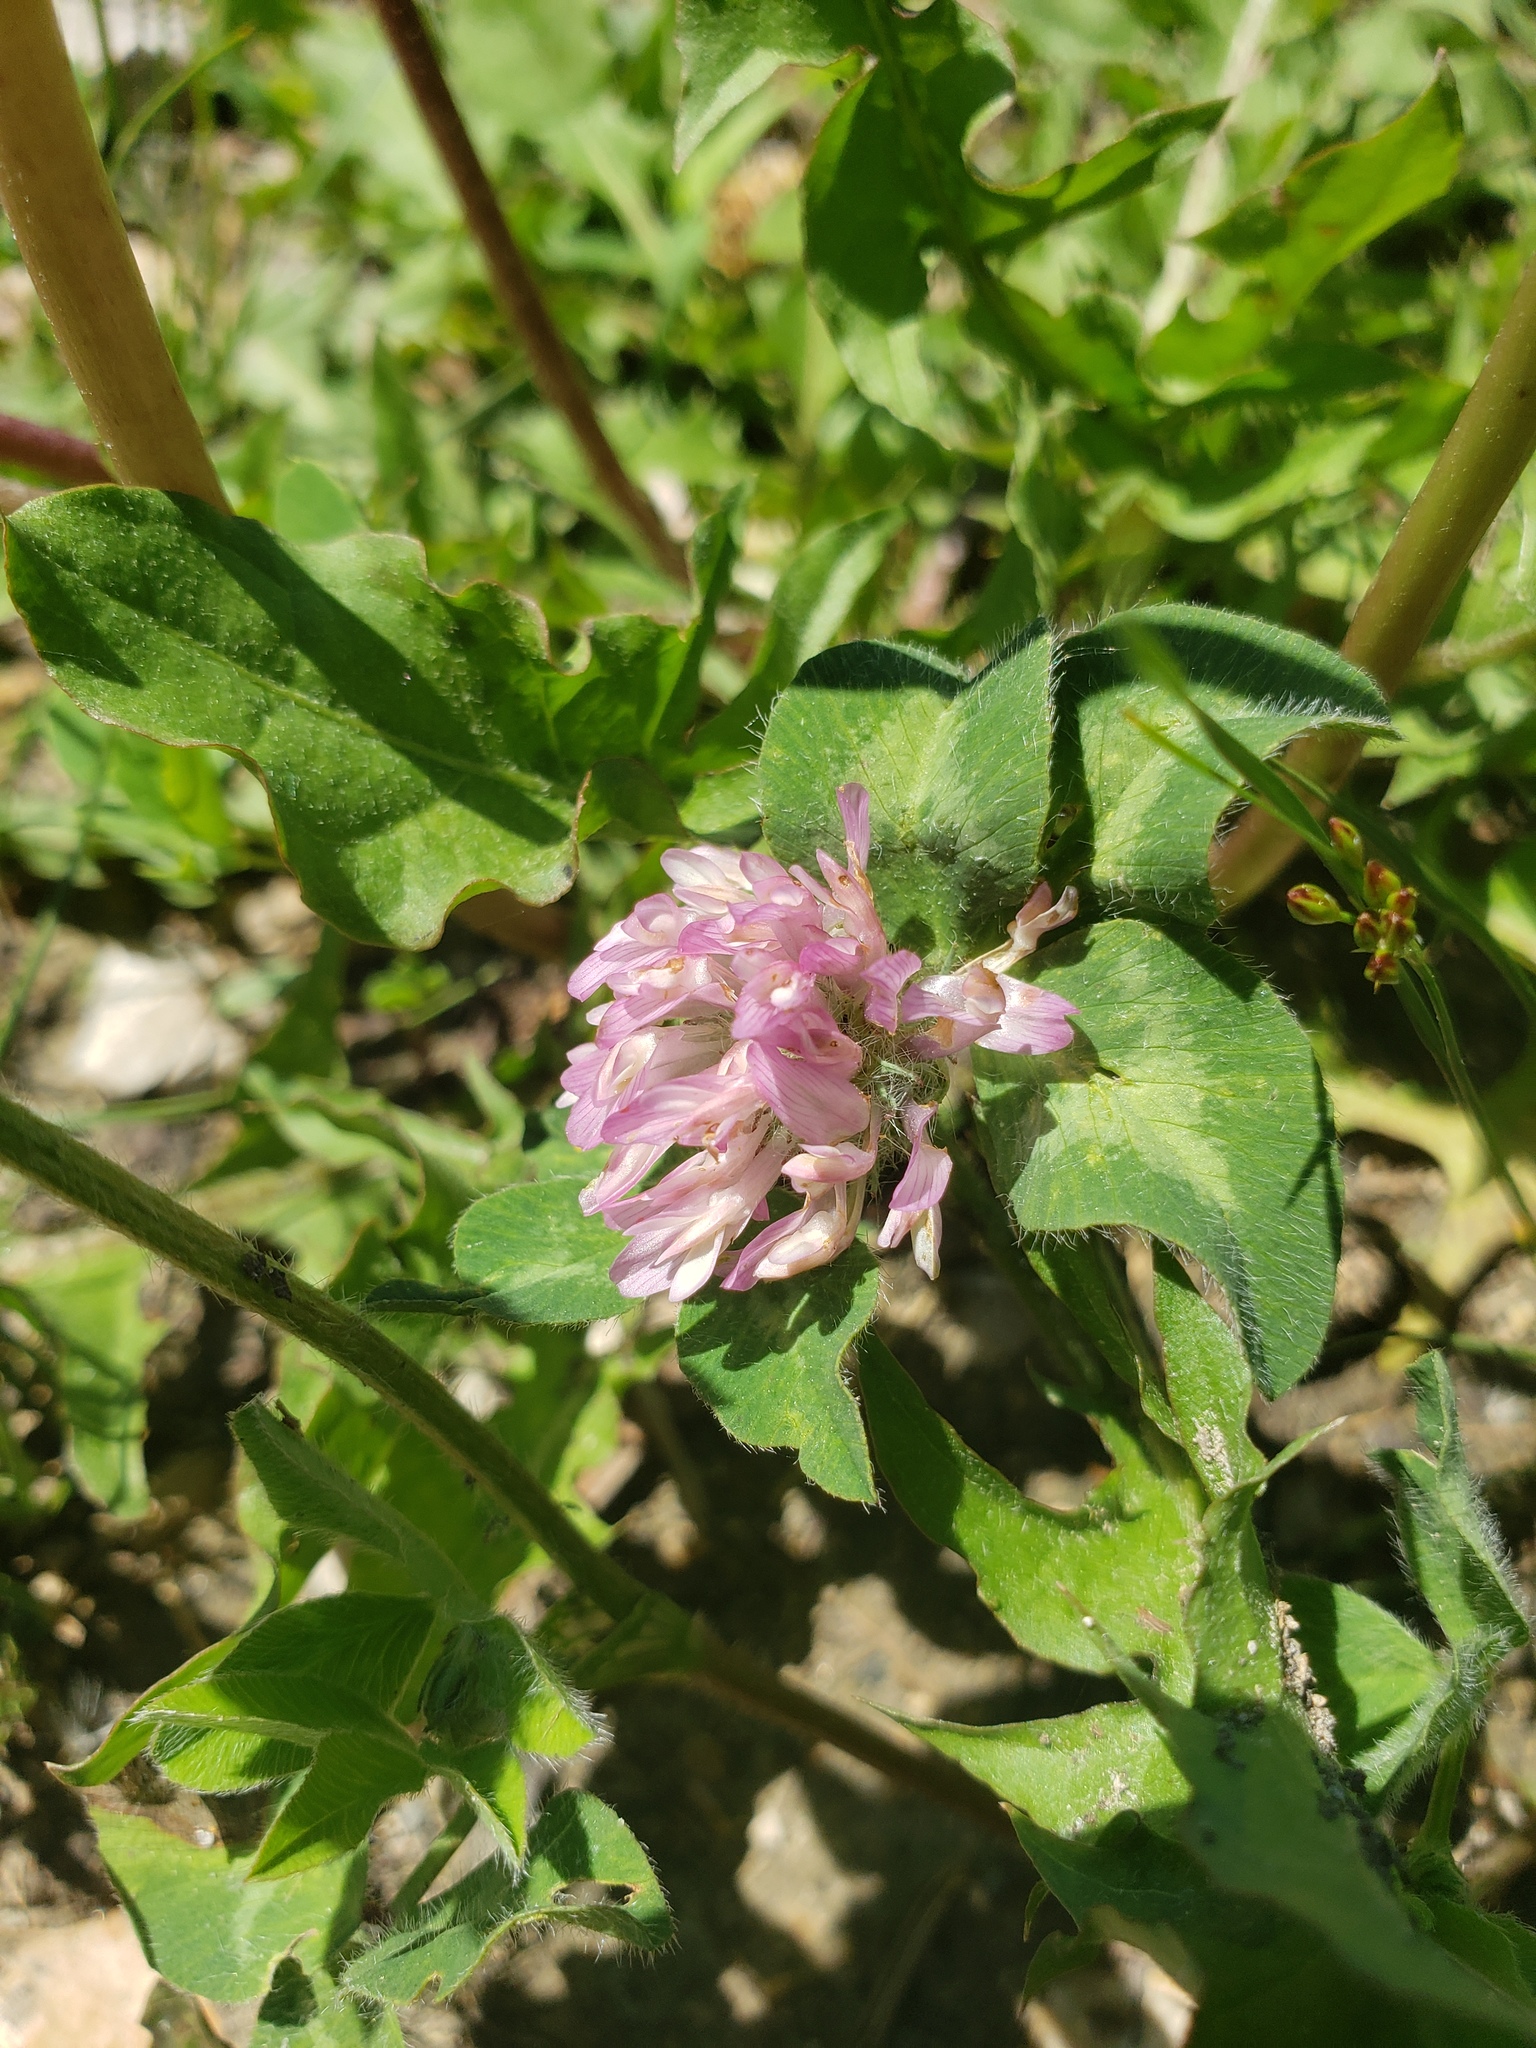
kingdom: Plantae
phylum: Tracheophyta
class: Magnoliopsida
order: Fabales
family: Fabaceae
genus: Trifolium
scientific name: Trifolium pratense
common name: Red clover
